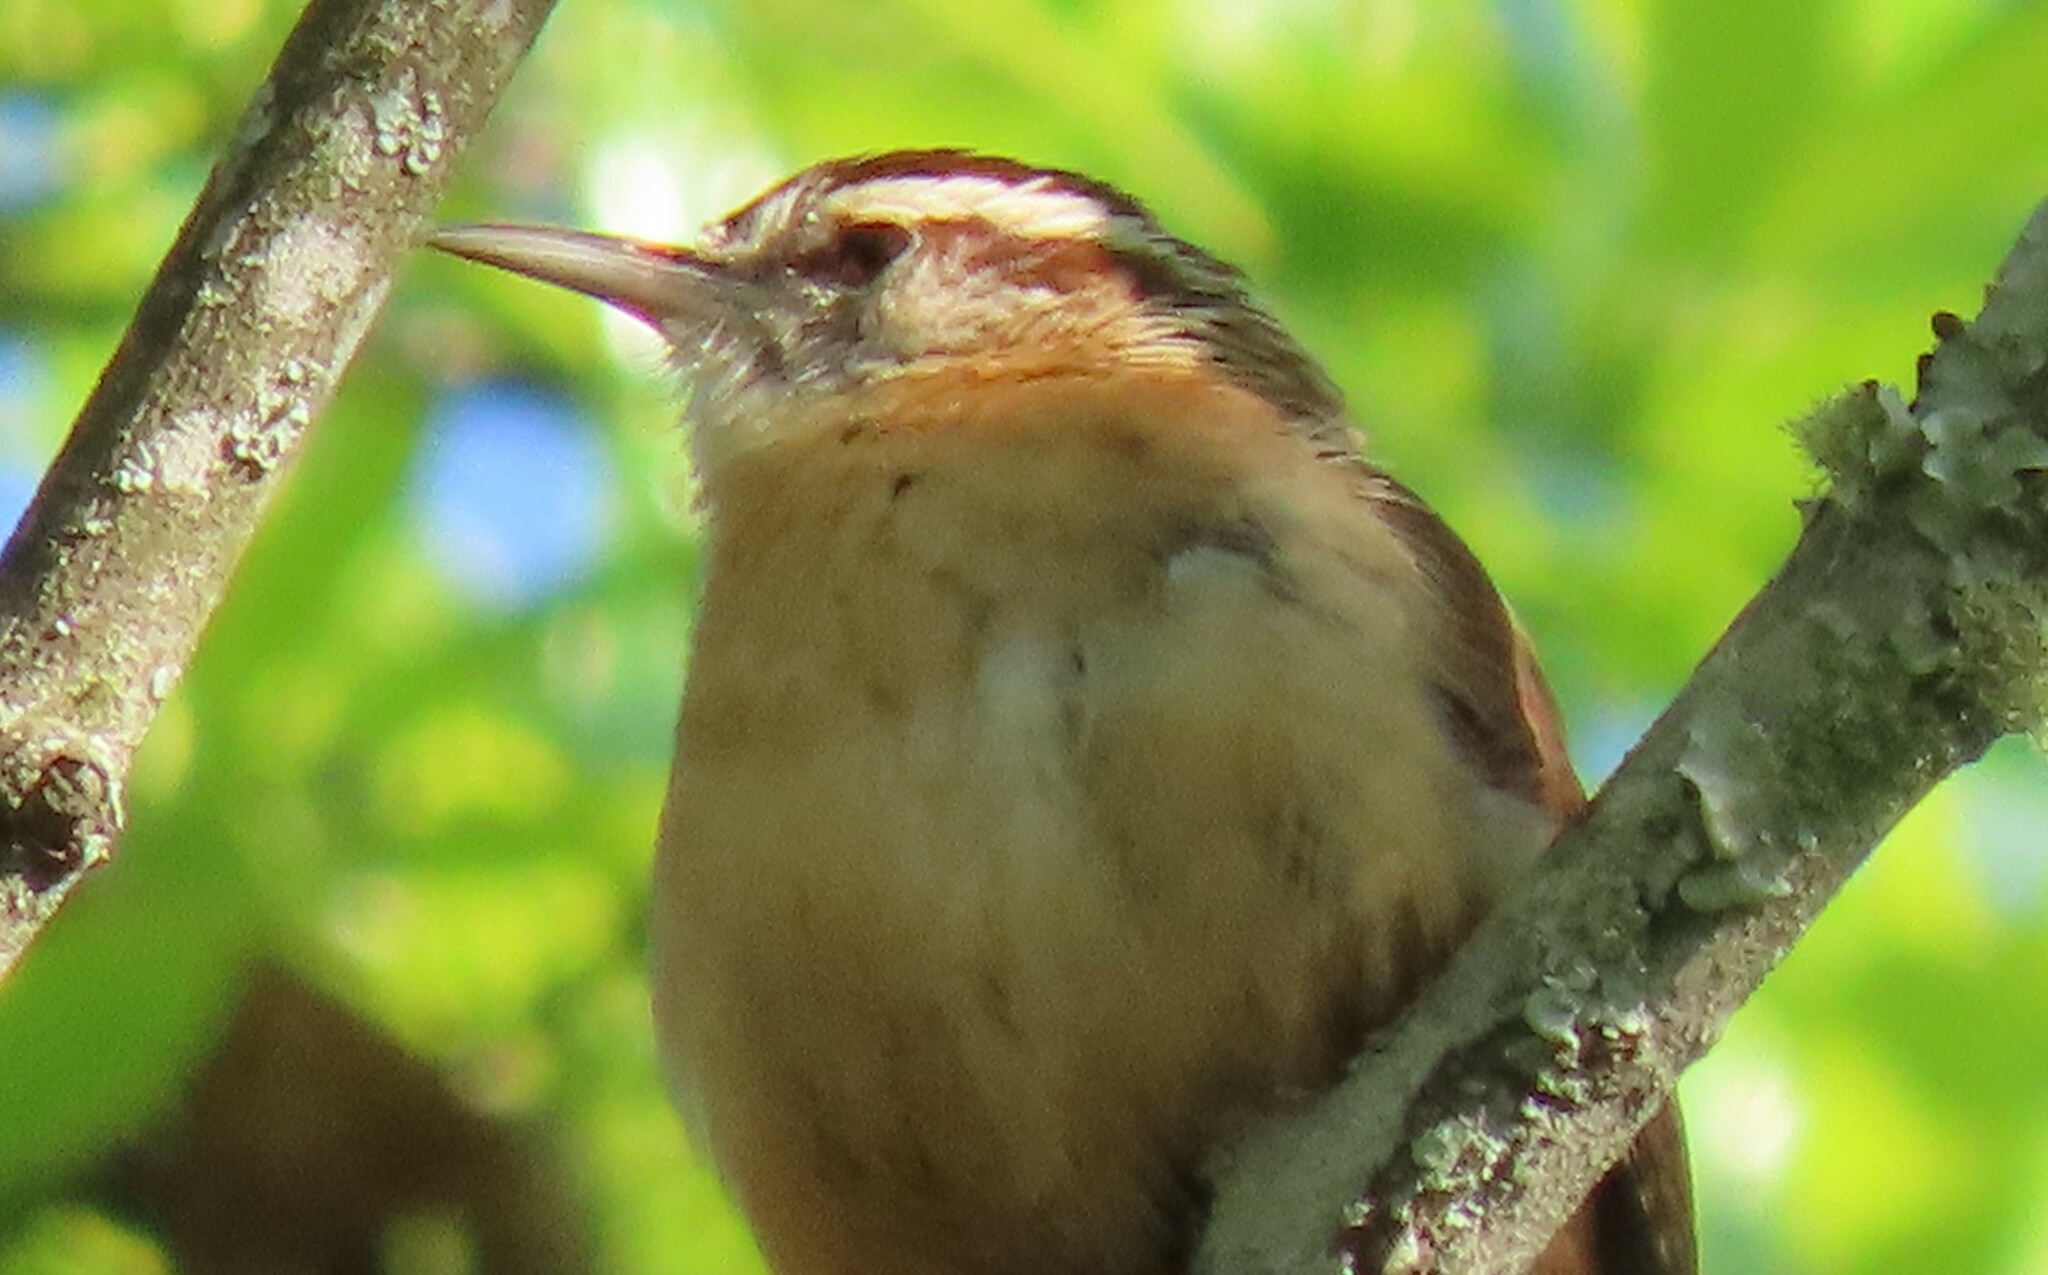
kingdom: Animalia
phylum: Chordata
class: Aves
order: Passeriformes
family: Troglodytidae
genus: Thryothorus
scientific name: Thryothorus ludovicianus
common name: Carolina wren
